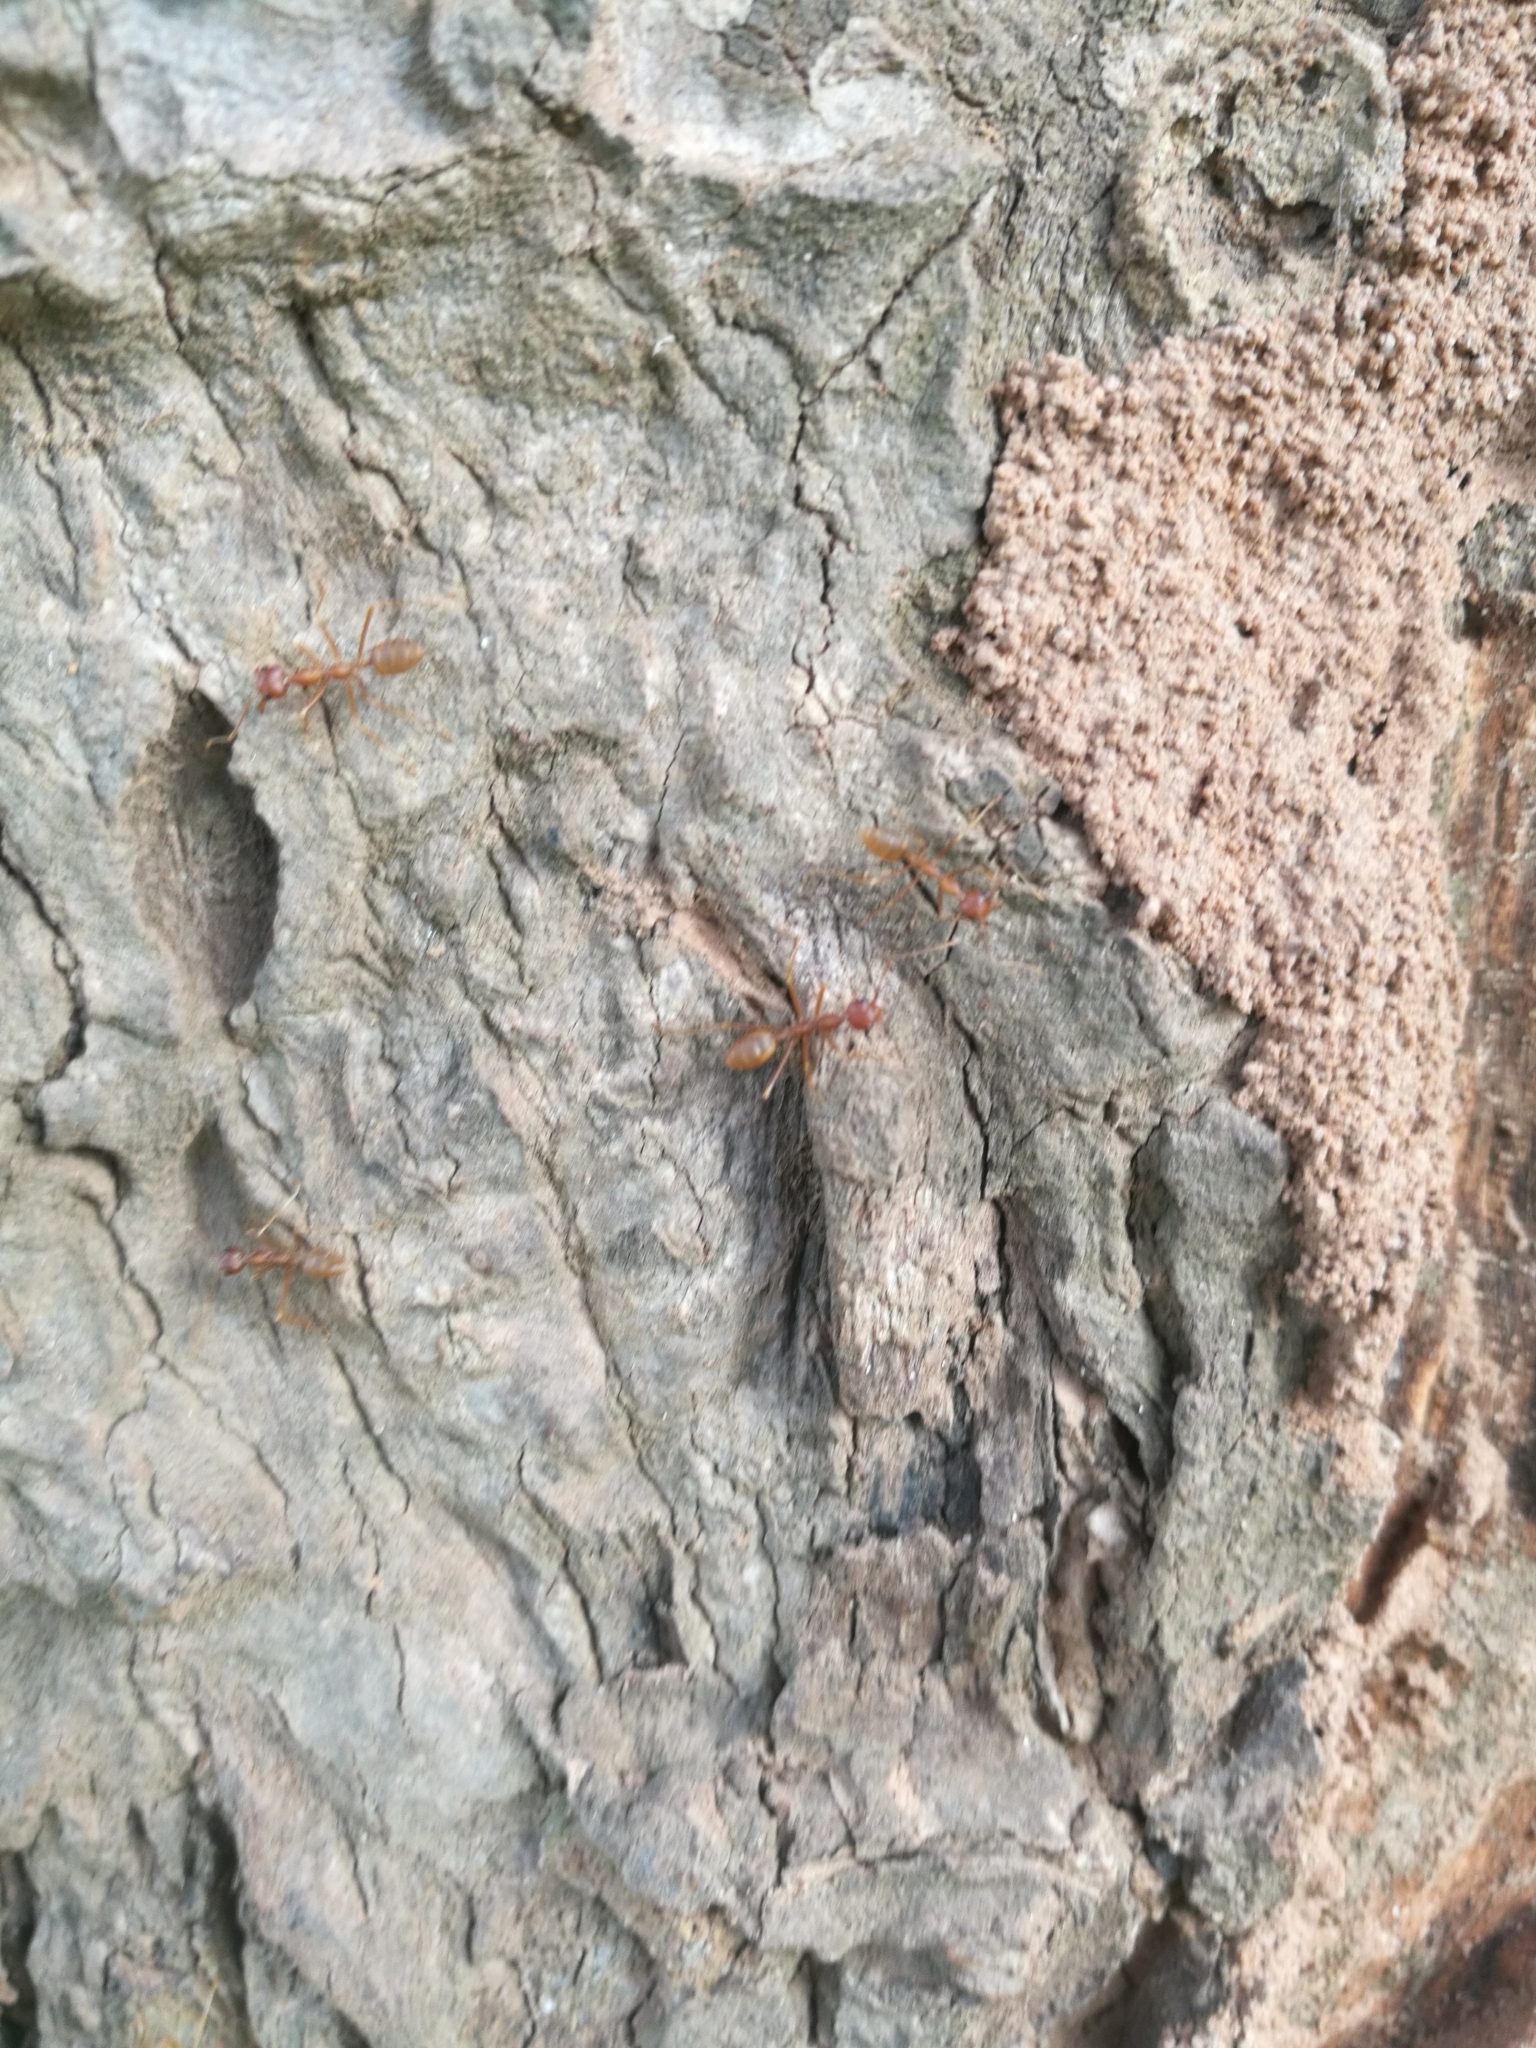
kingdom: Animalia
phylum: Arthropoda
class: Insecta
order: Hymenoptera
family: Formicidae
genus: Oecophylla
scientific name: Oecophylla longinoda
